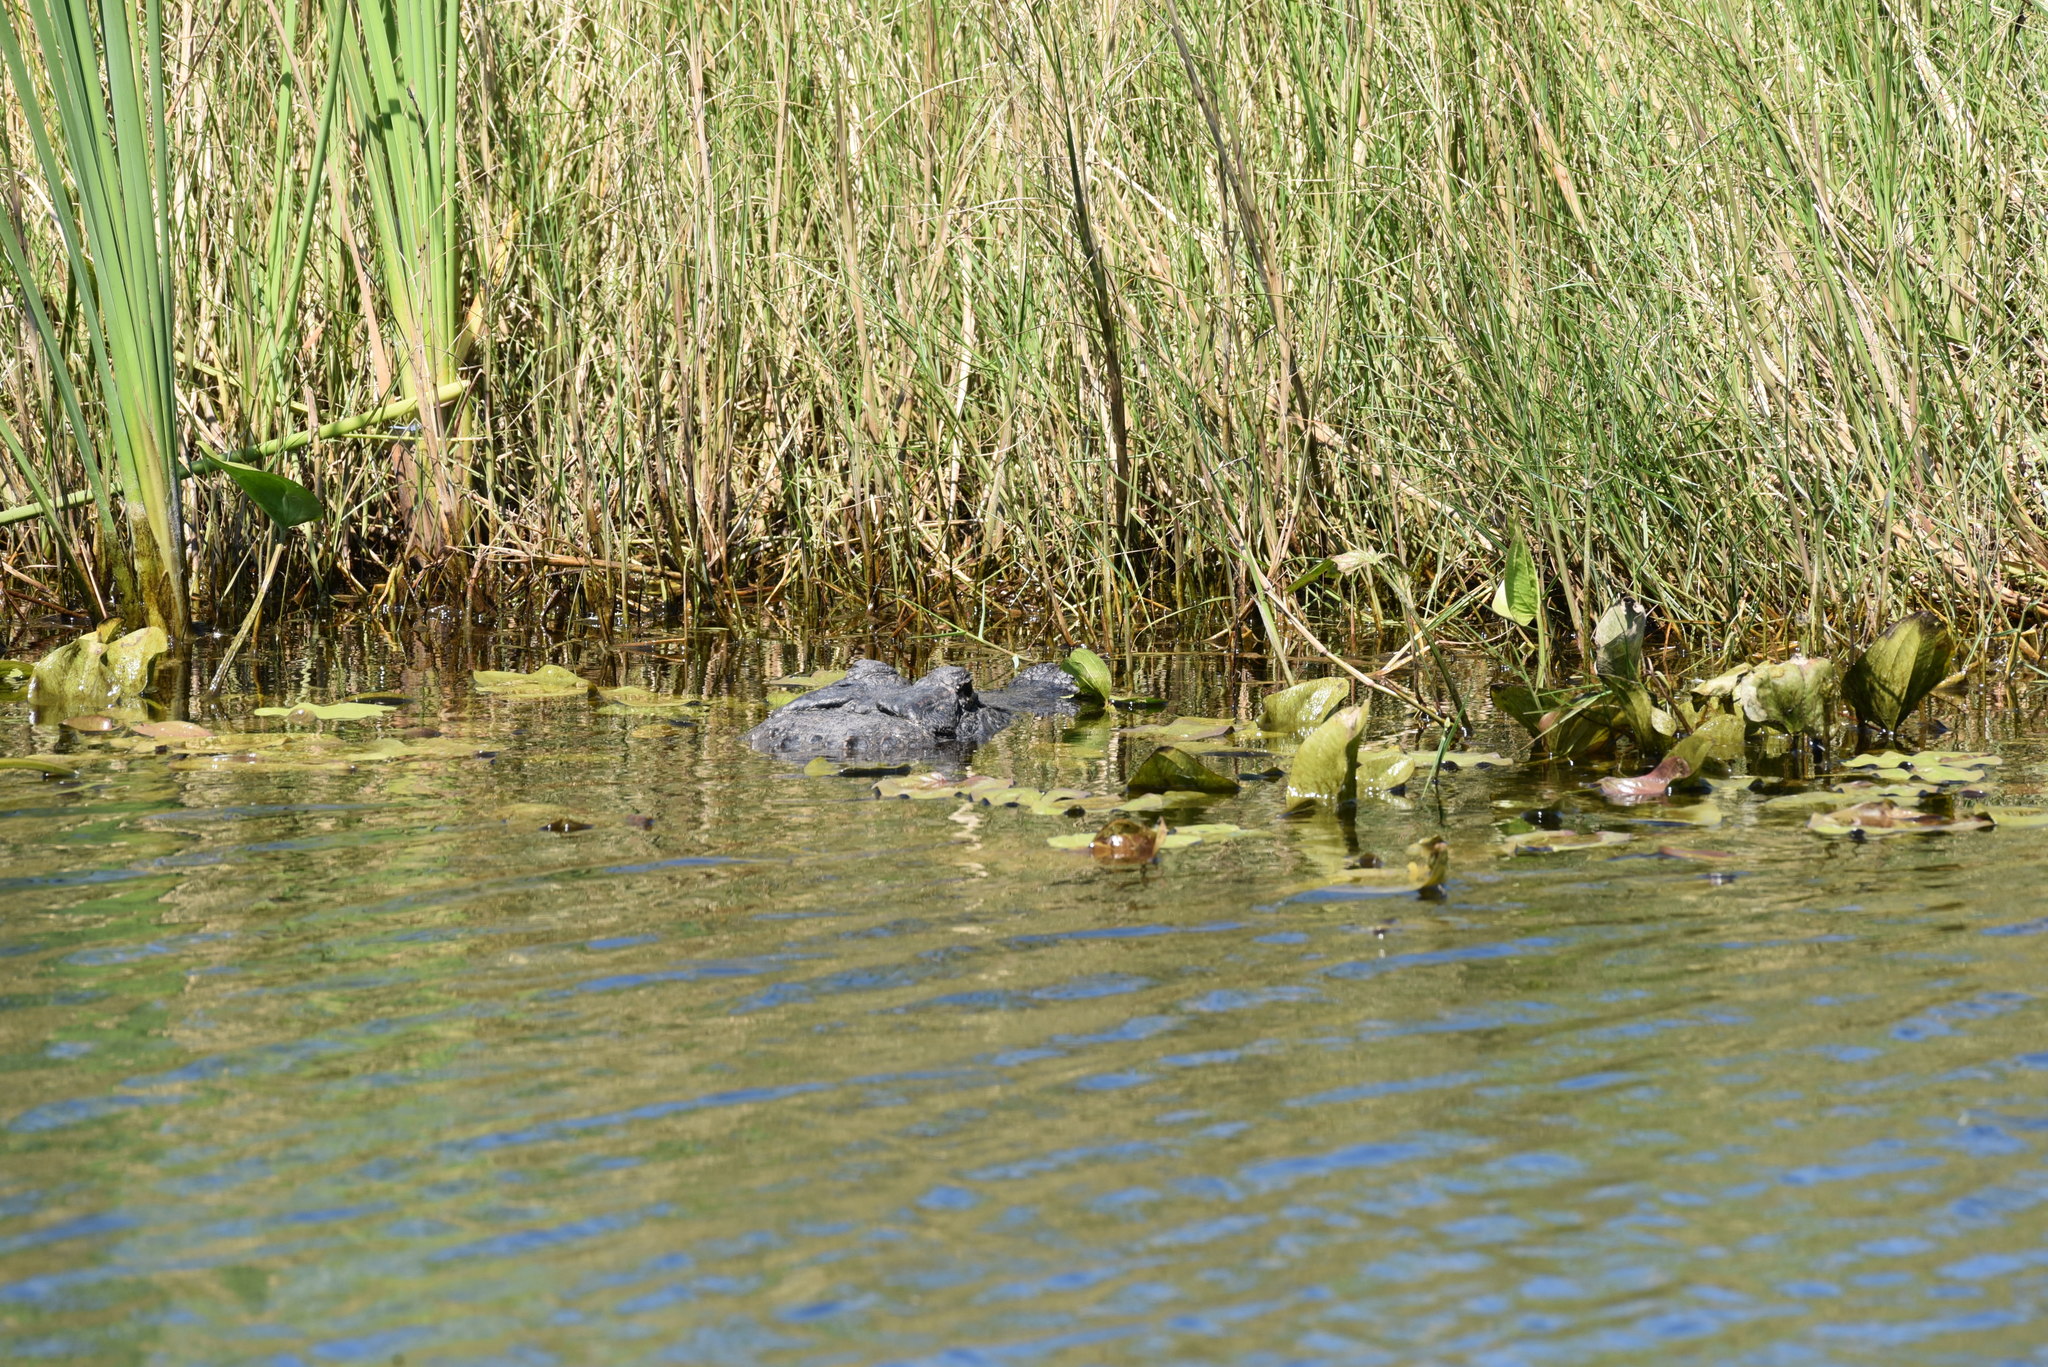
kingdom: Animalia
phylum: Chordata
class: Crocodylia
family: Alligatoridae
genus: Alligator
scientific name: Alligator mississippiensis
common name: American alligator
